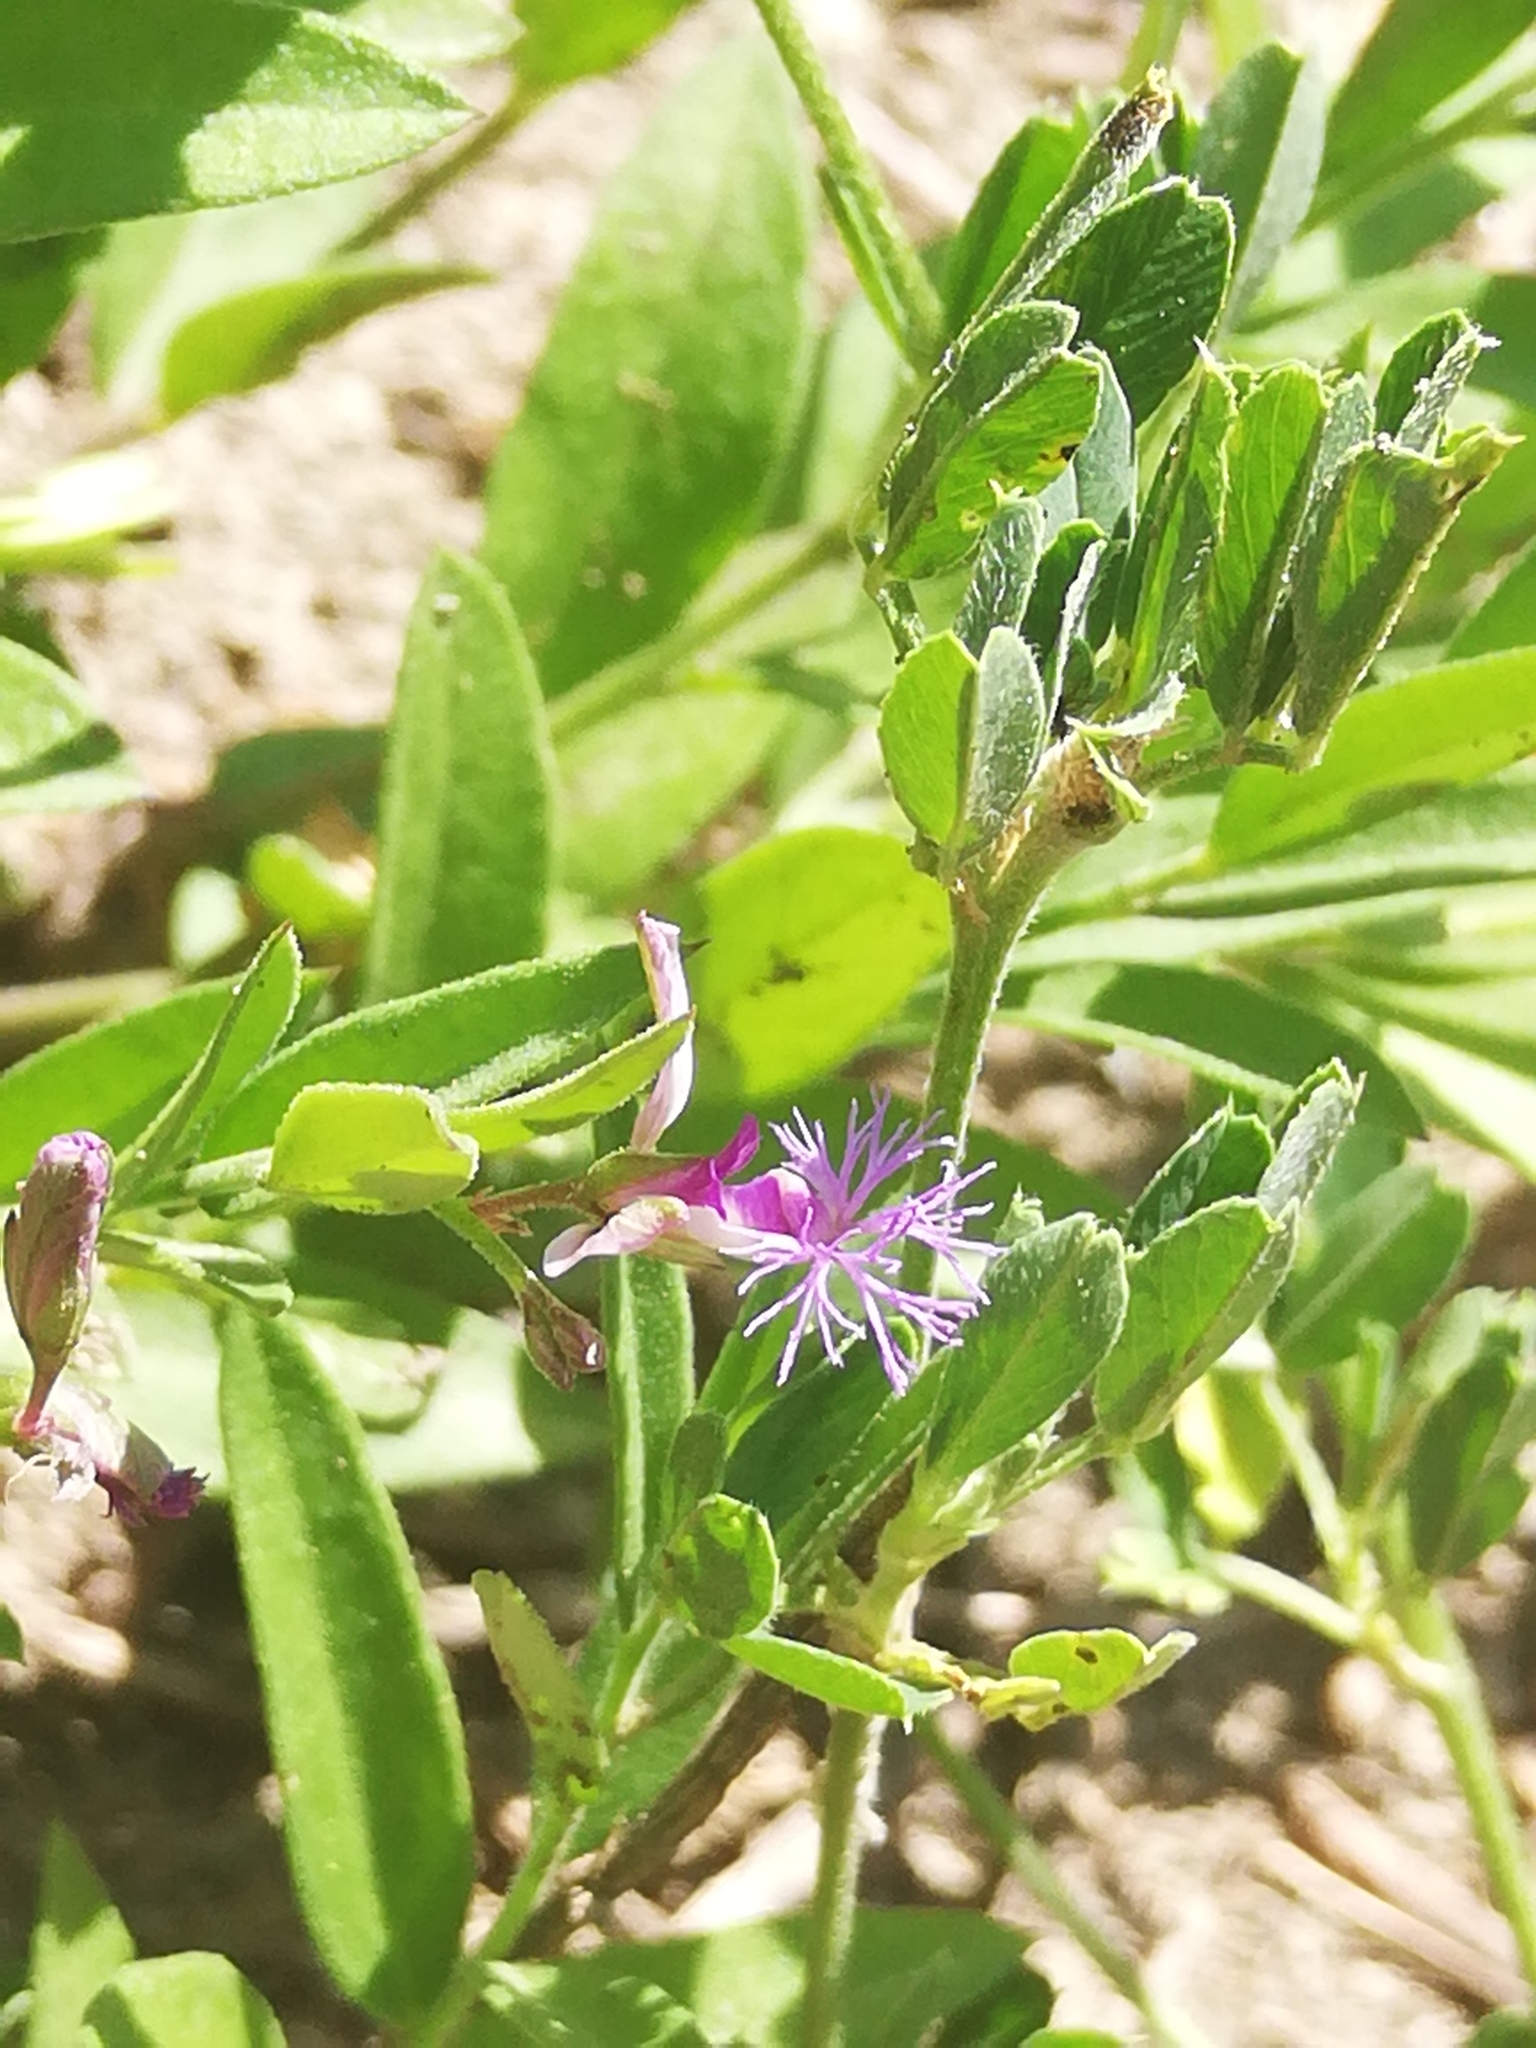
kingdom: Plantae
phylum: Tracheophyta
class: Magnoliopsida
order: Fabales
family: Polygalaceae
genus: Polygala
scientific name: Polygala sibirica
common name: Siberian polygala
